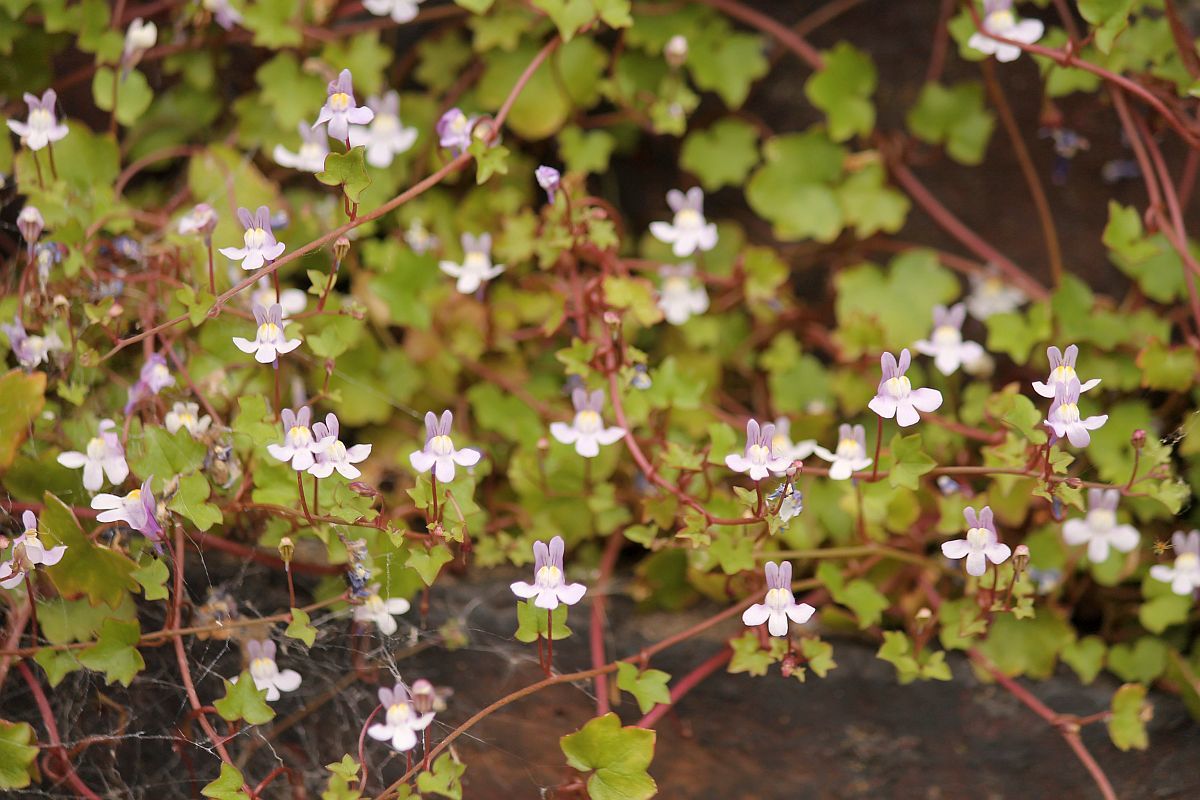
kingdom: Plantae
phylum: Tracheophyta
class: Magnoliopsida
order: Lamiales
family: Plantaginaceae
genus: Cymbalaria
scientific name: Cymbalaria muralis
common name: Ivy-leaved toadflax
